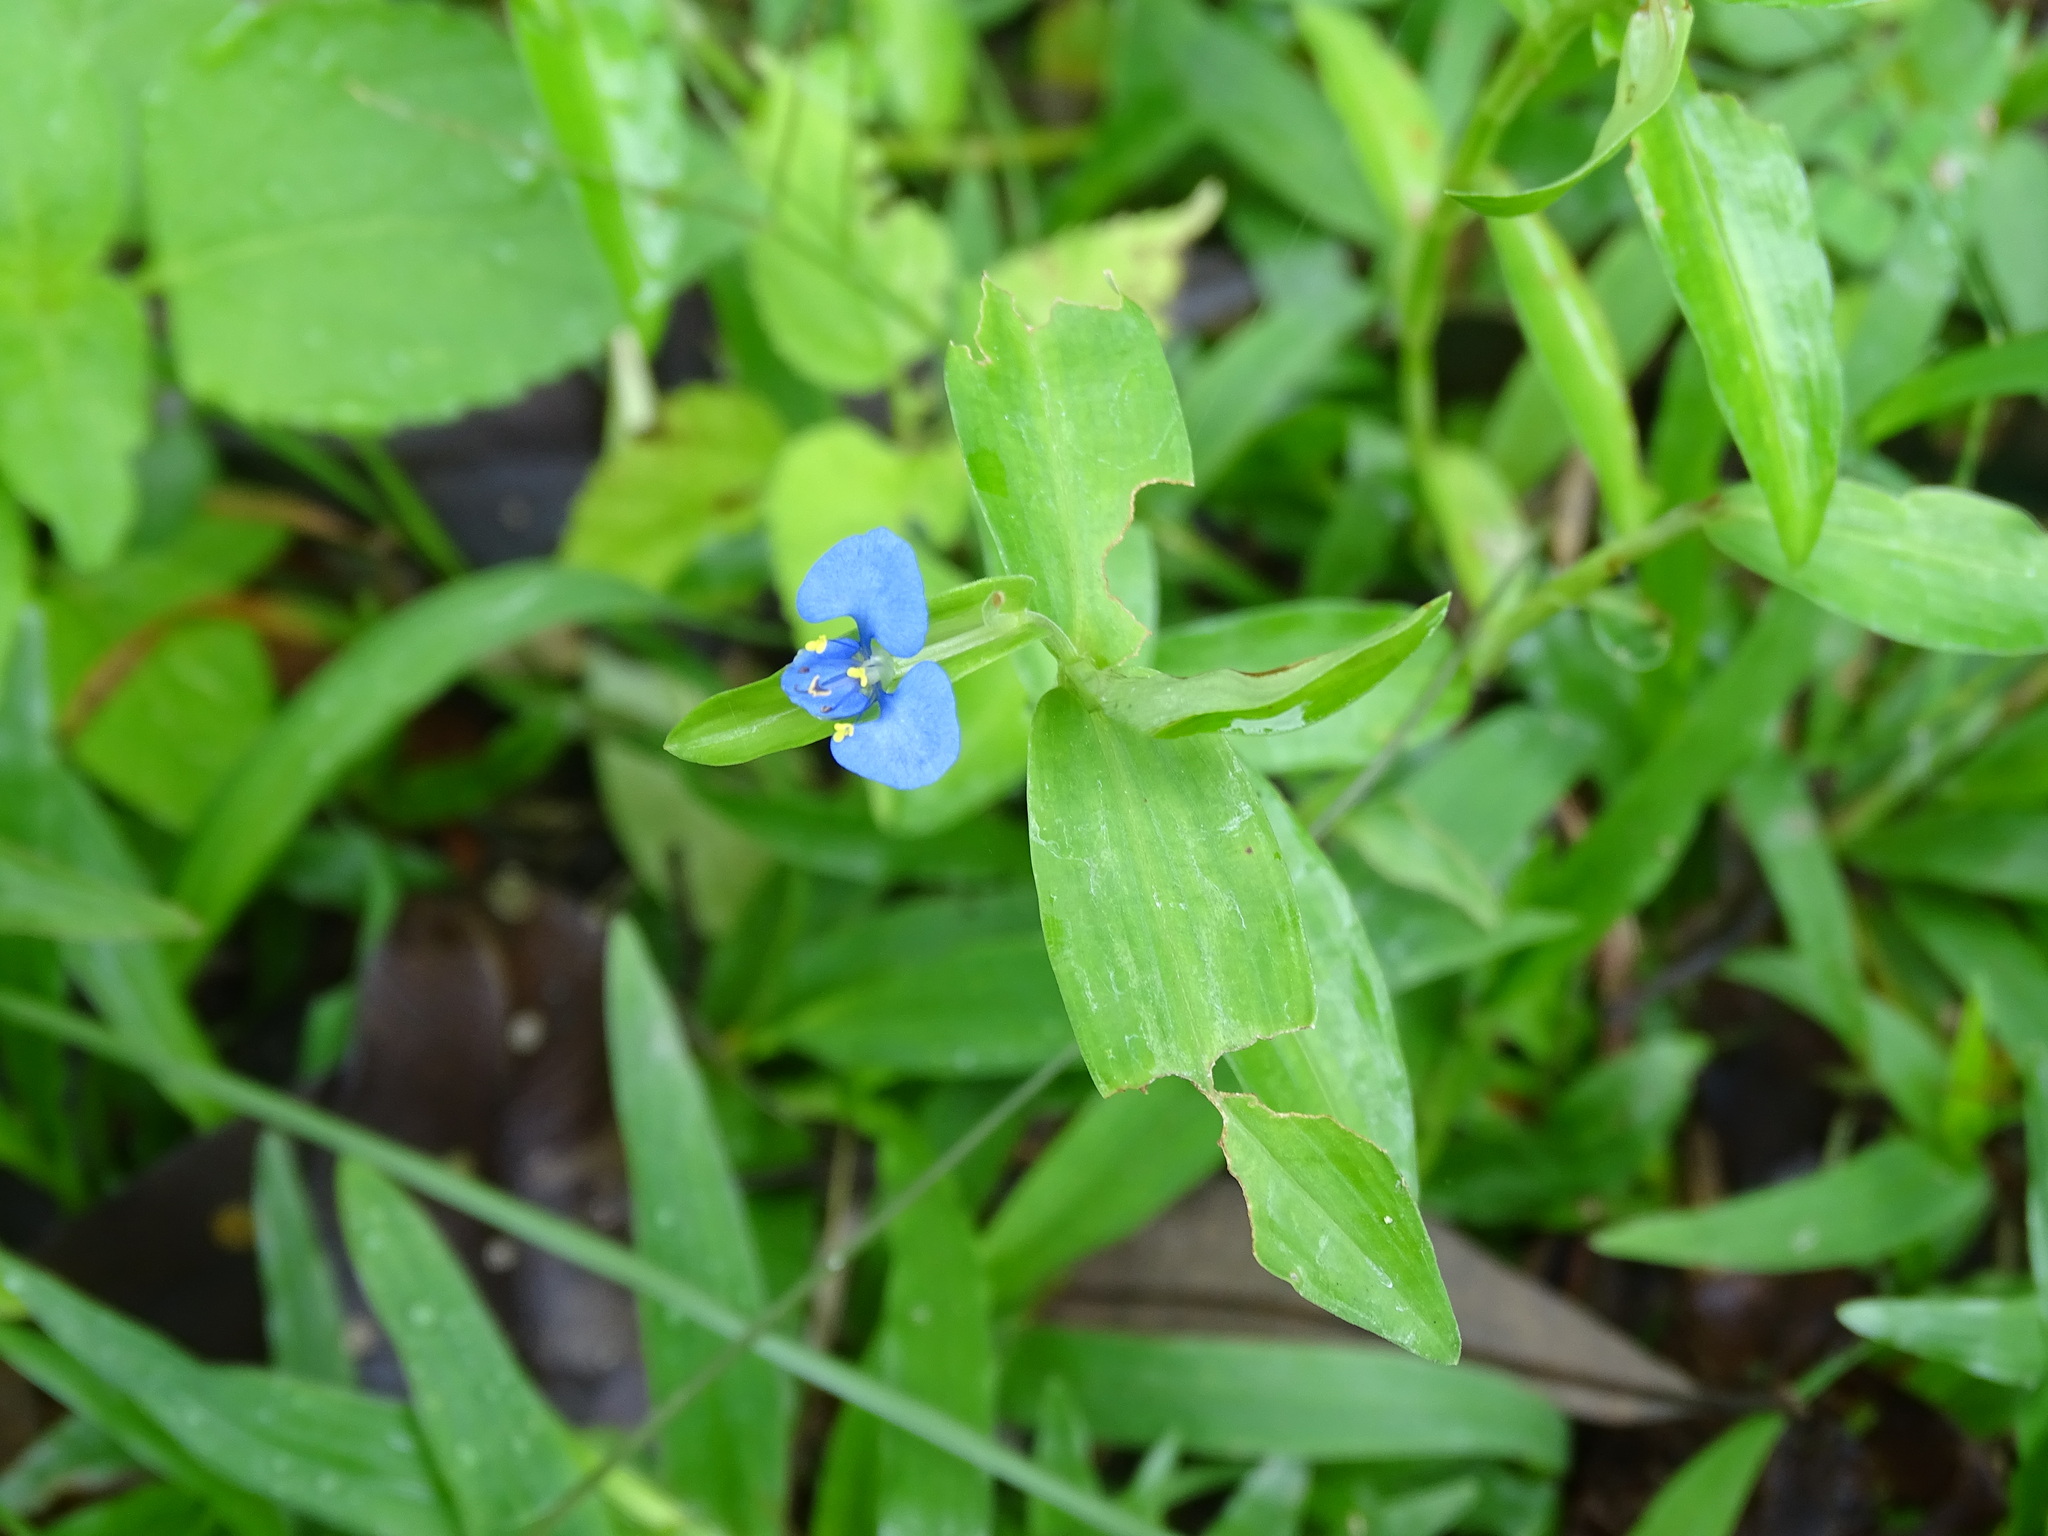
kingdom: Plantae
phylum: Tracheophyta
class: Liliopsida
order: Commelinales
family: Commelinaceae
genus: Commelina
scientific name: Commelina diffusa
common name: Climbing dayflower
